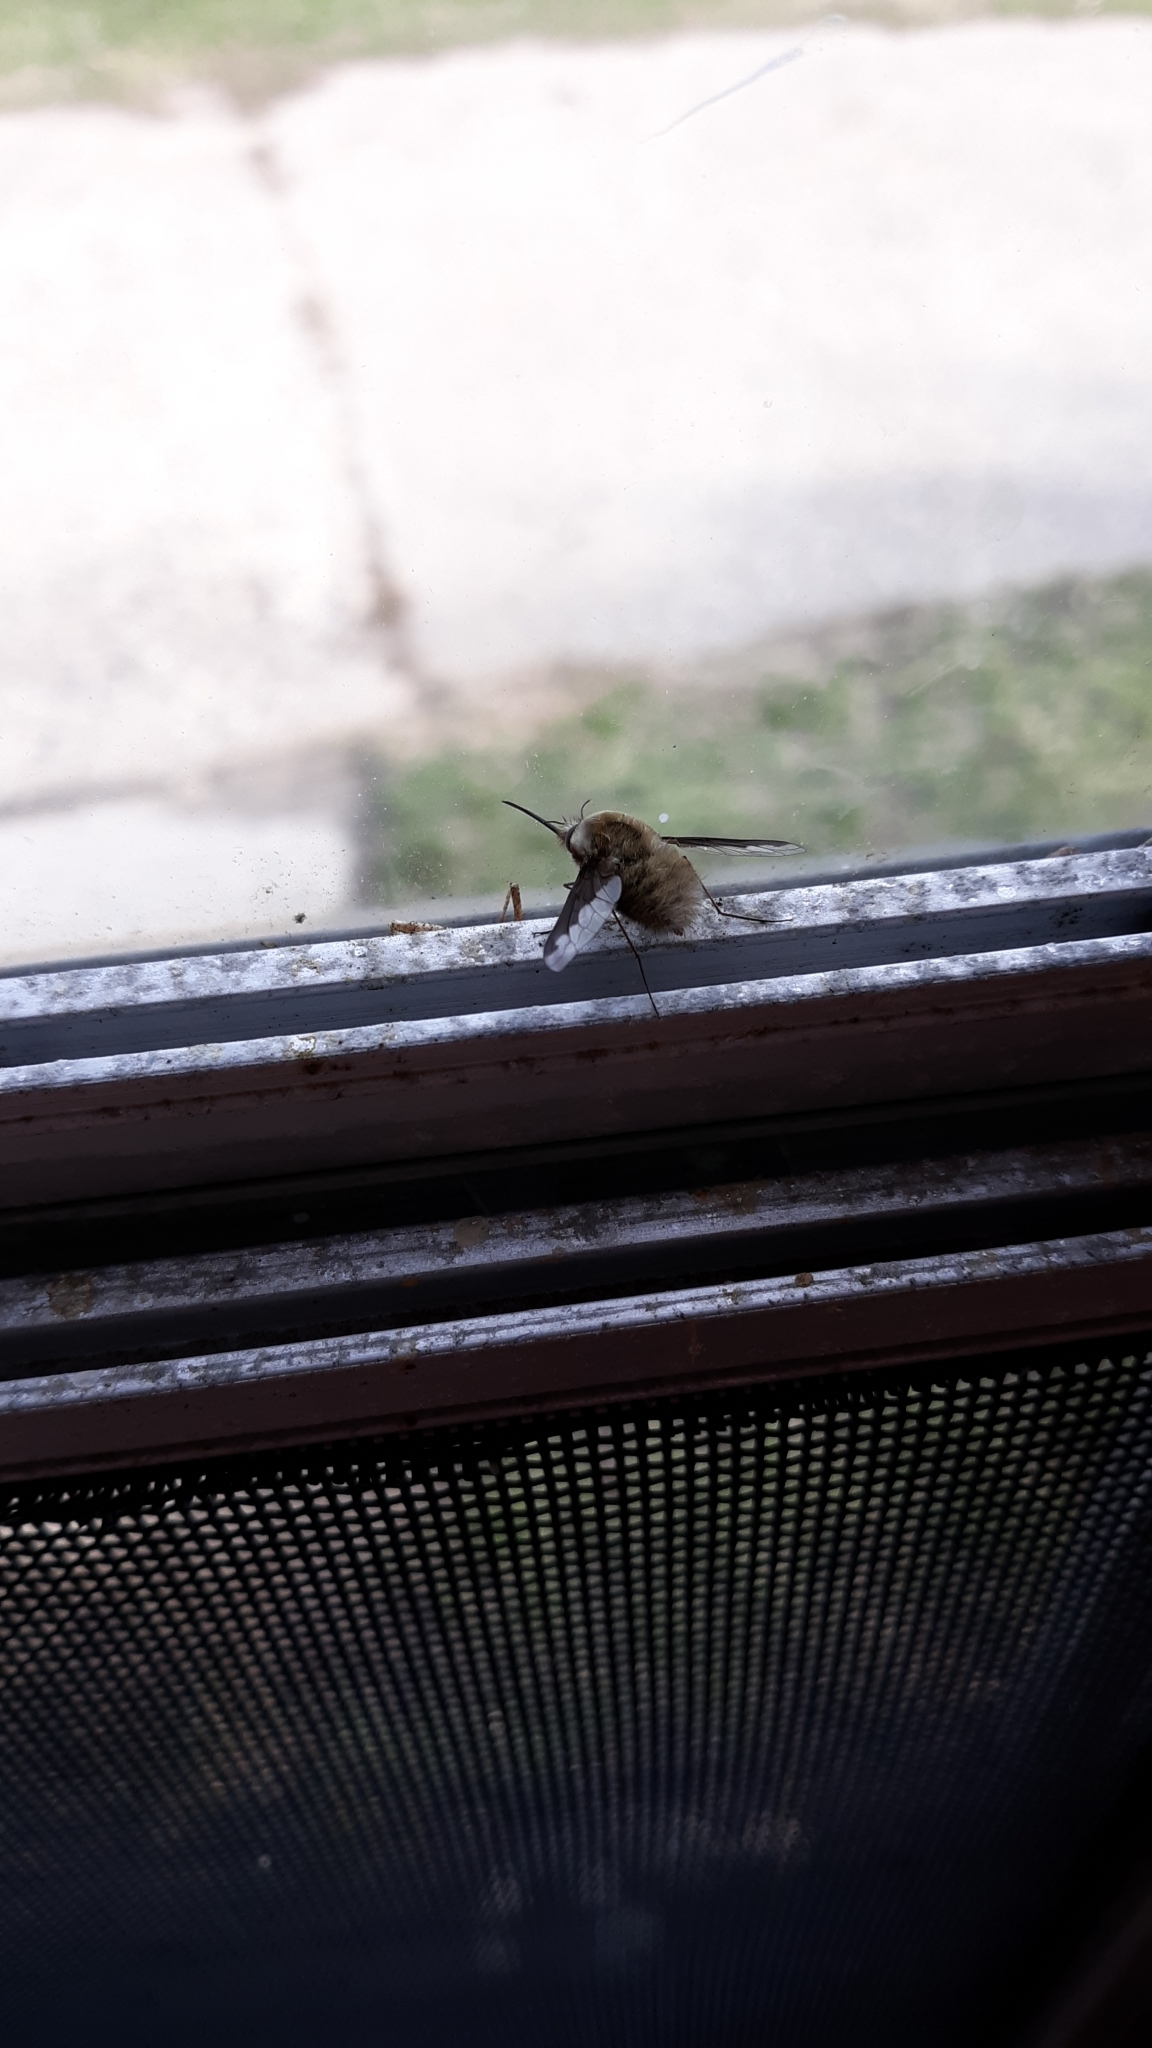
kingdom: Animalia
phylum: Arthropoda
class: Insecta
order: Diptera
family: Bombyliidae
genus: Bombylius
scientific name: Bombylius major
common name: Bee fly
